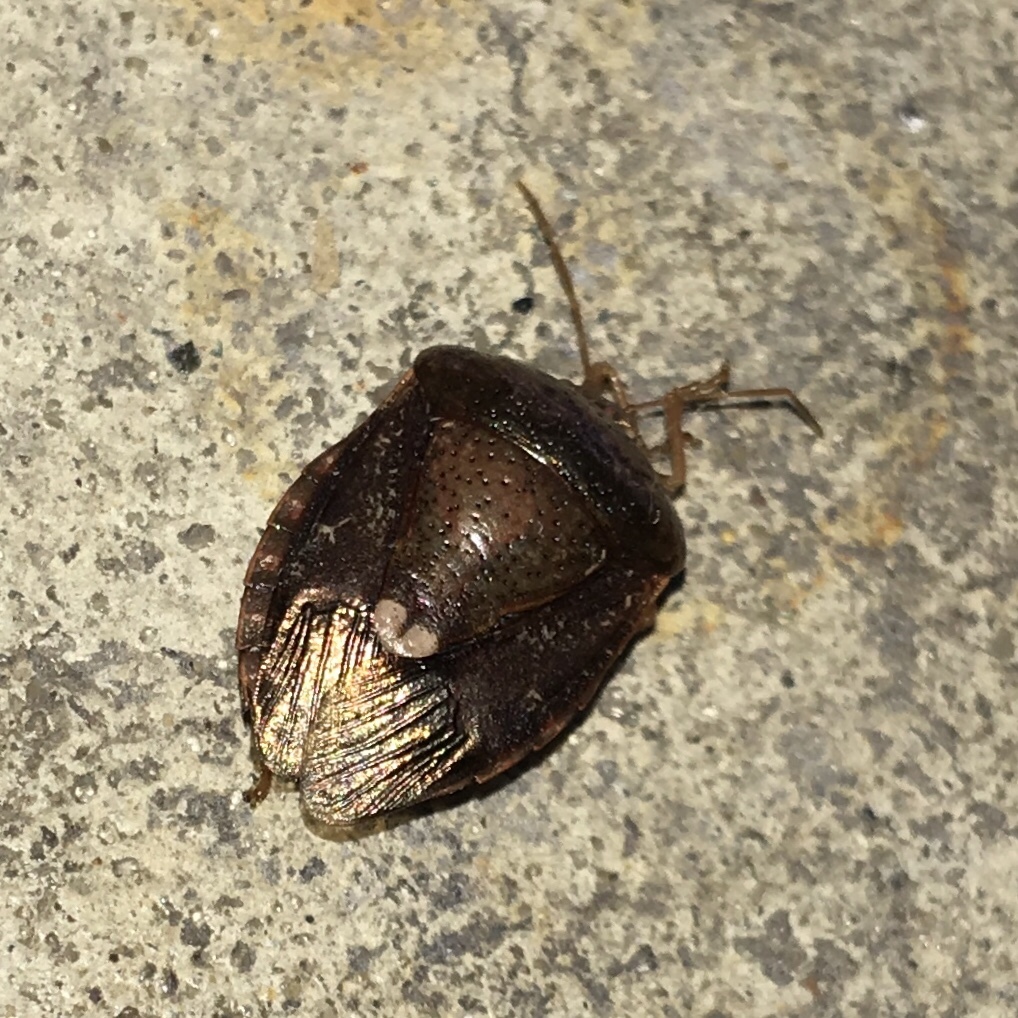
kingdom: Animalia
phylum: Arthropoda
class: Insecta
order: Hemiptera
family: Pentatomidae
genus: Edessa
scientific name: Edessa bifida
